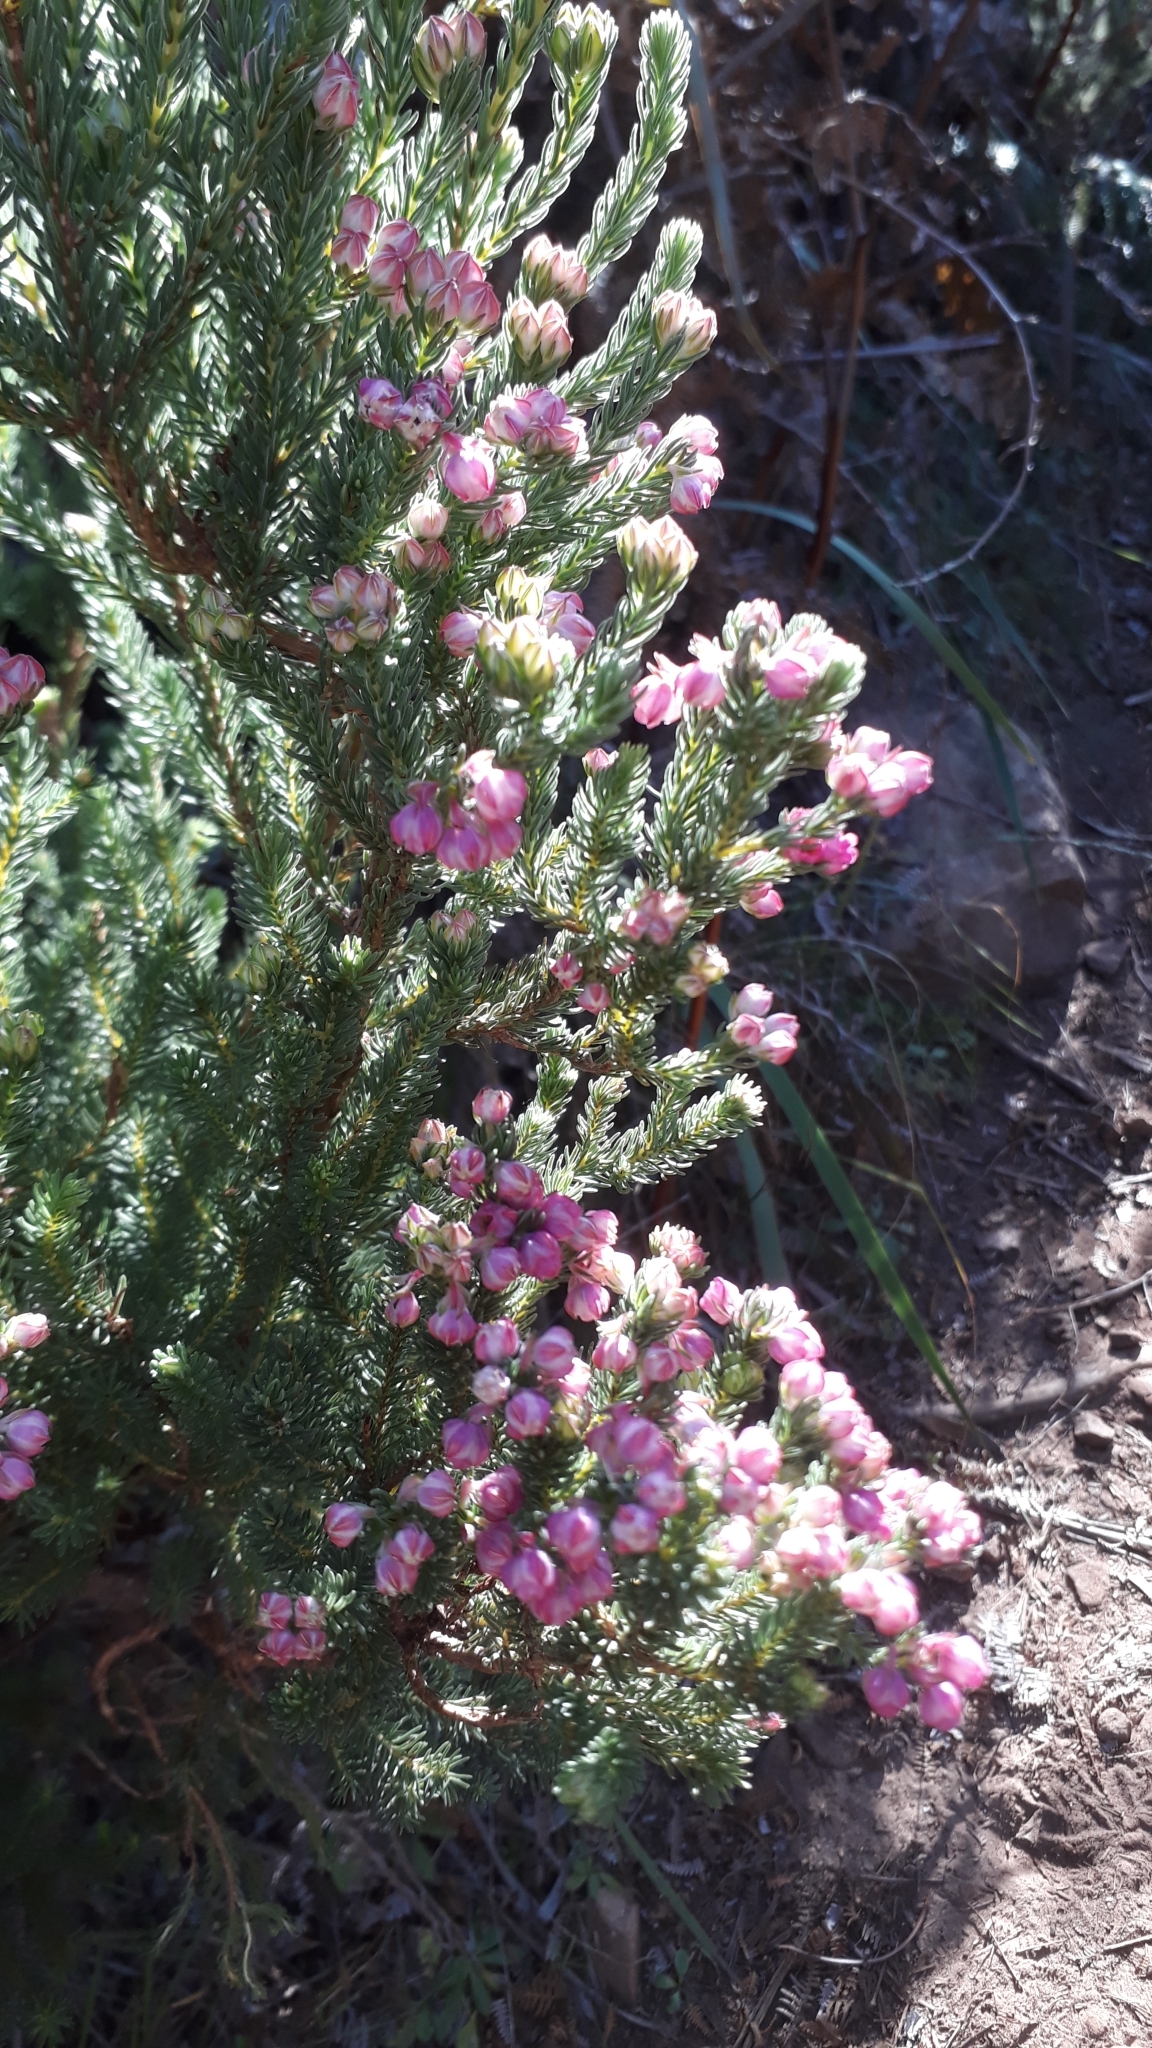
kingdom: Plantae
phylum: Tracheophyta
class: Magnoliopsida
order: Ericales
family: Ericaceae
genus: Erica
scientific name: Erica baccans
